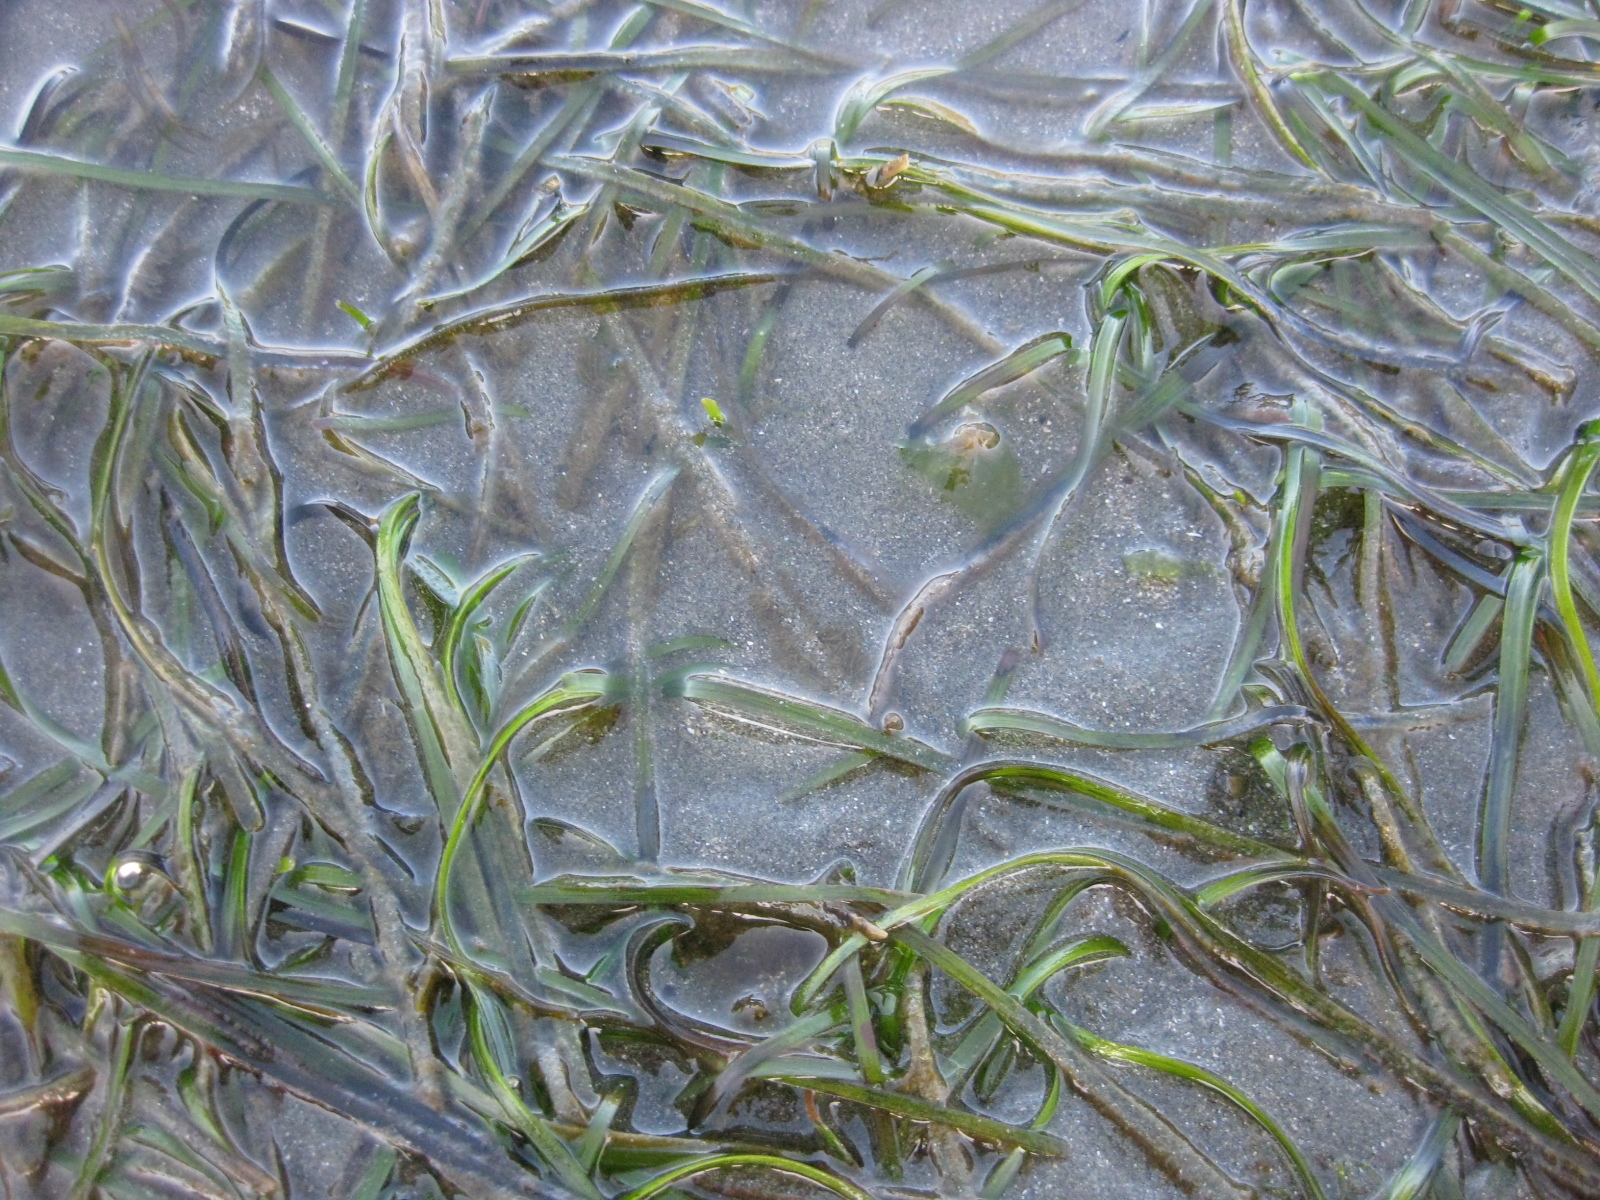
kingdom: Plantae
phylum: Tracheophyta
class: Liliopsida
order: Alismatales
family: Zosteraceae
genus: Zostera
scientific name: Zostera novazelandica
